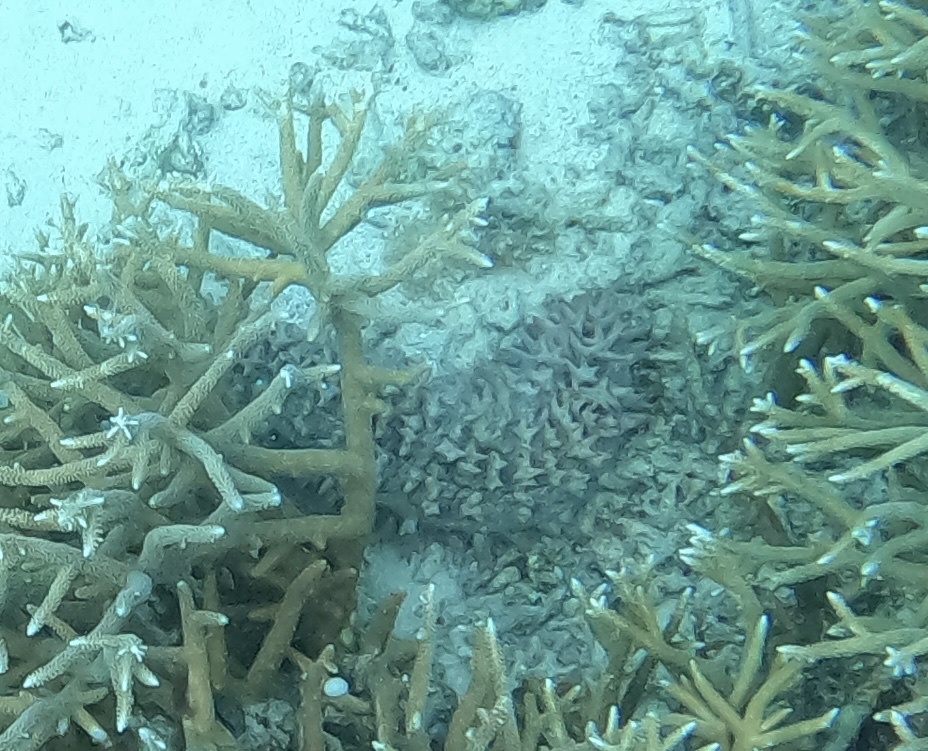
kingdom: Animalia
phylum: Echinodermata
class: Holothuroidea
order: Synallactida
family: Stichopodidae
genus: Thelenota
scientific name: Thelenota ananas
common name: Prickly redfish
